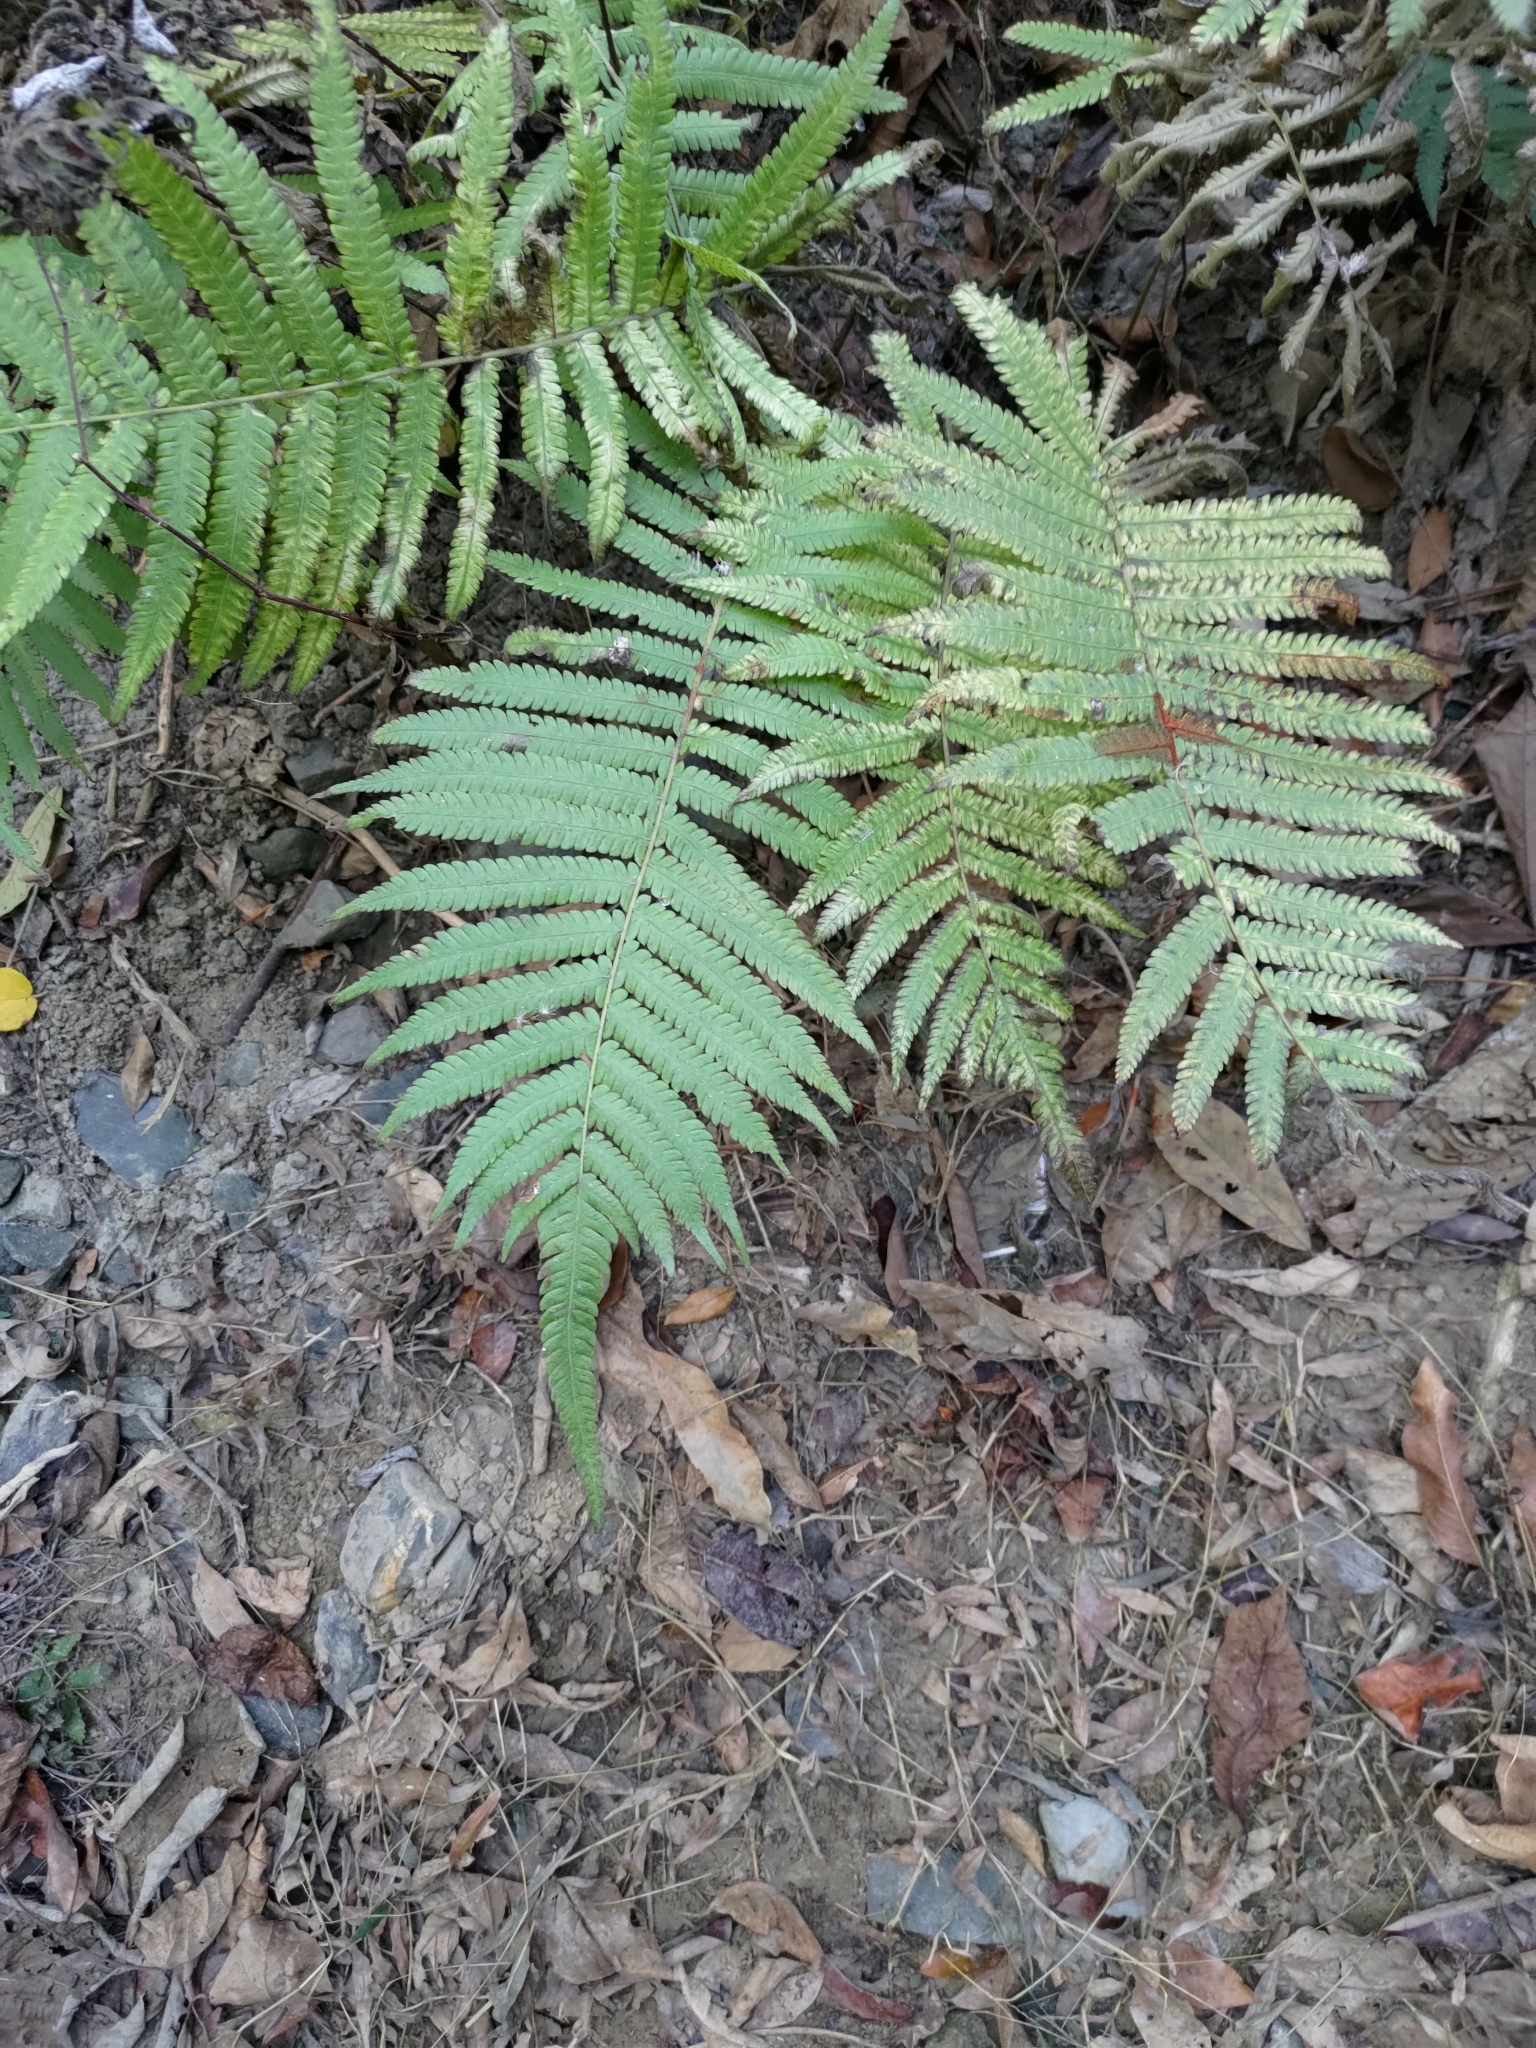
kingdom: Plantae
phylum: Tracheophyta
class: Polypodiopsida
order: Polypodiales
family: Thelypteridaceae
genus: Christella
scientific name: Christella parasitica
